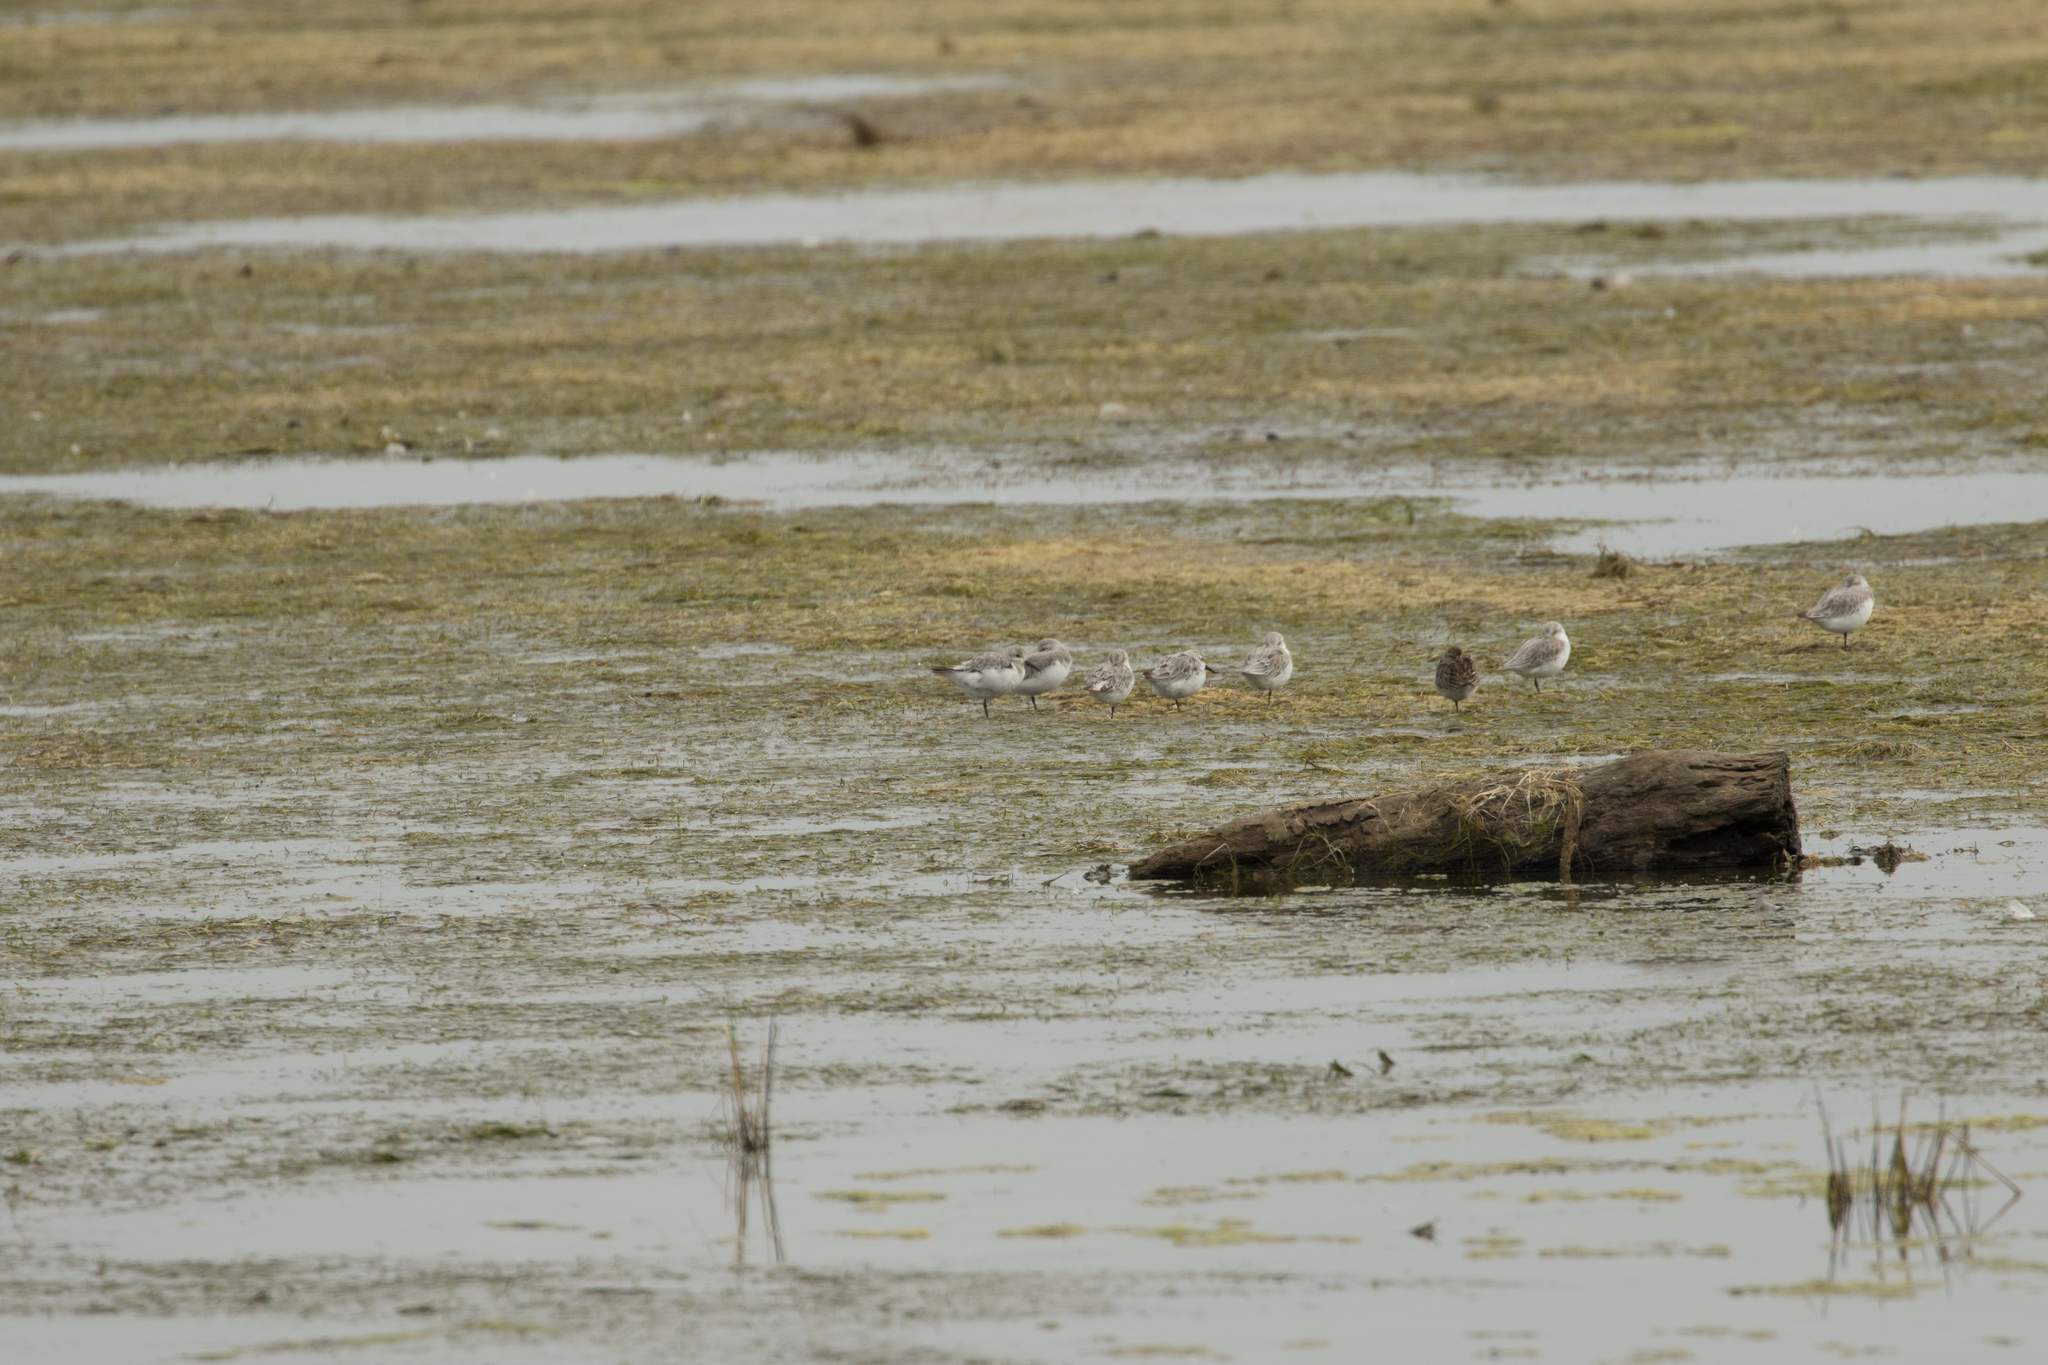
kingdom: Animalia
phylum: Chordata
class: Aves
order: Charadriiformes
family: Scolopacidae
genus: Calidris
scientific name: Calidris alba
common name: Sanderling
